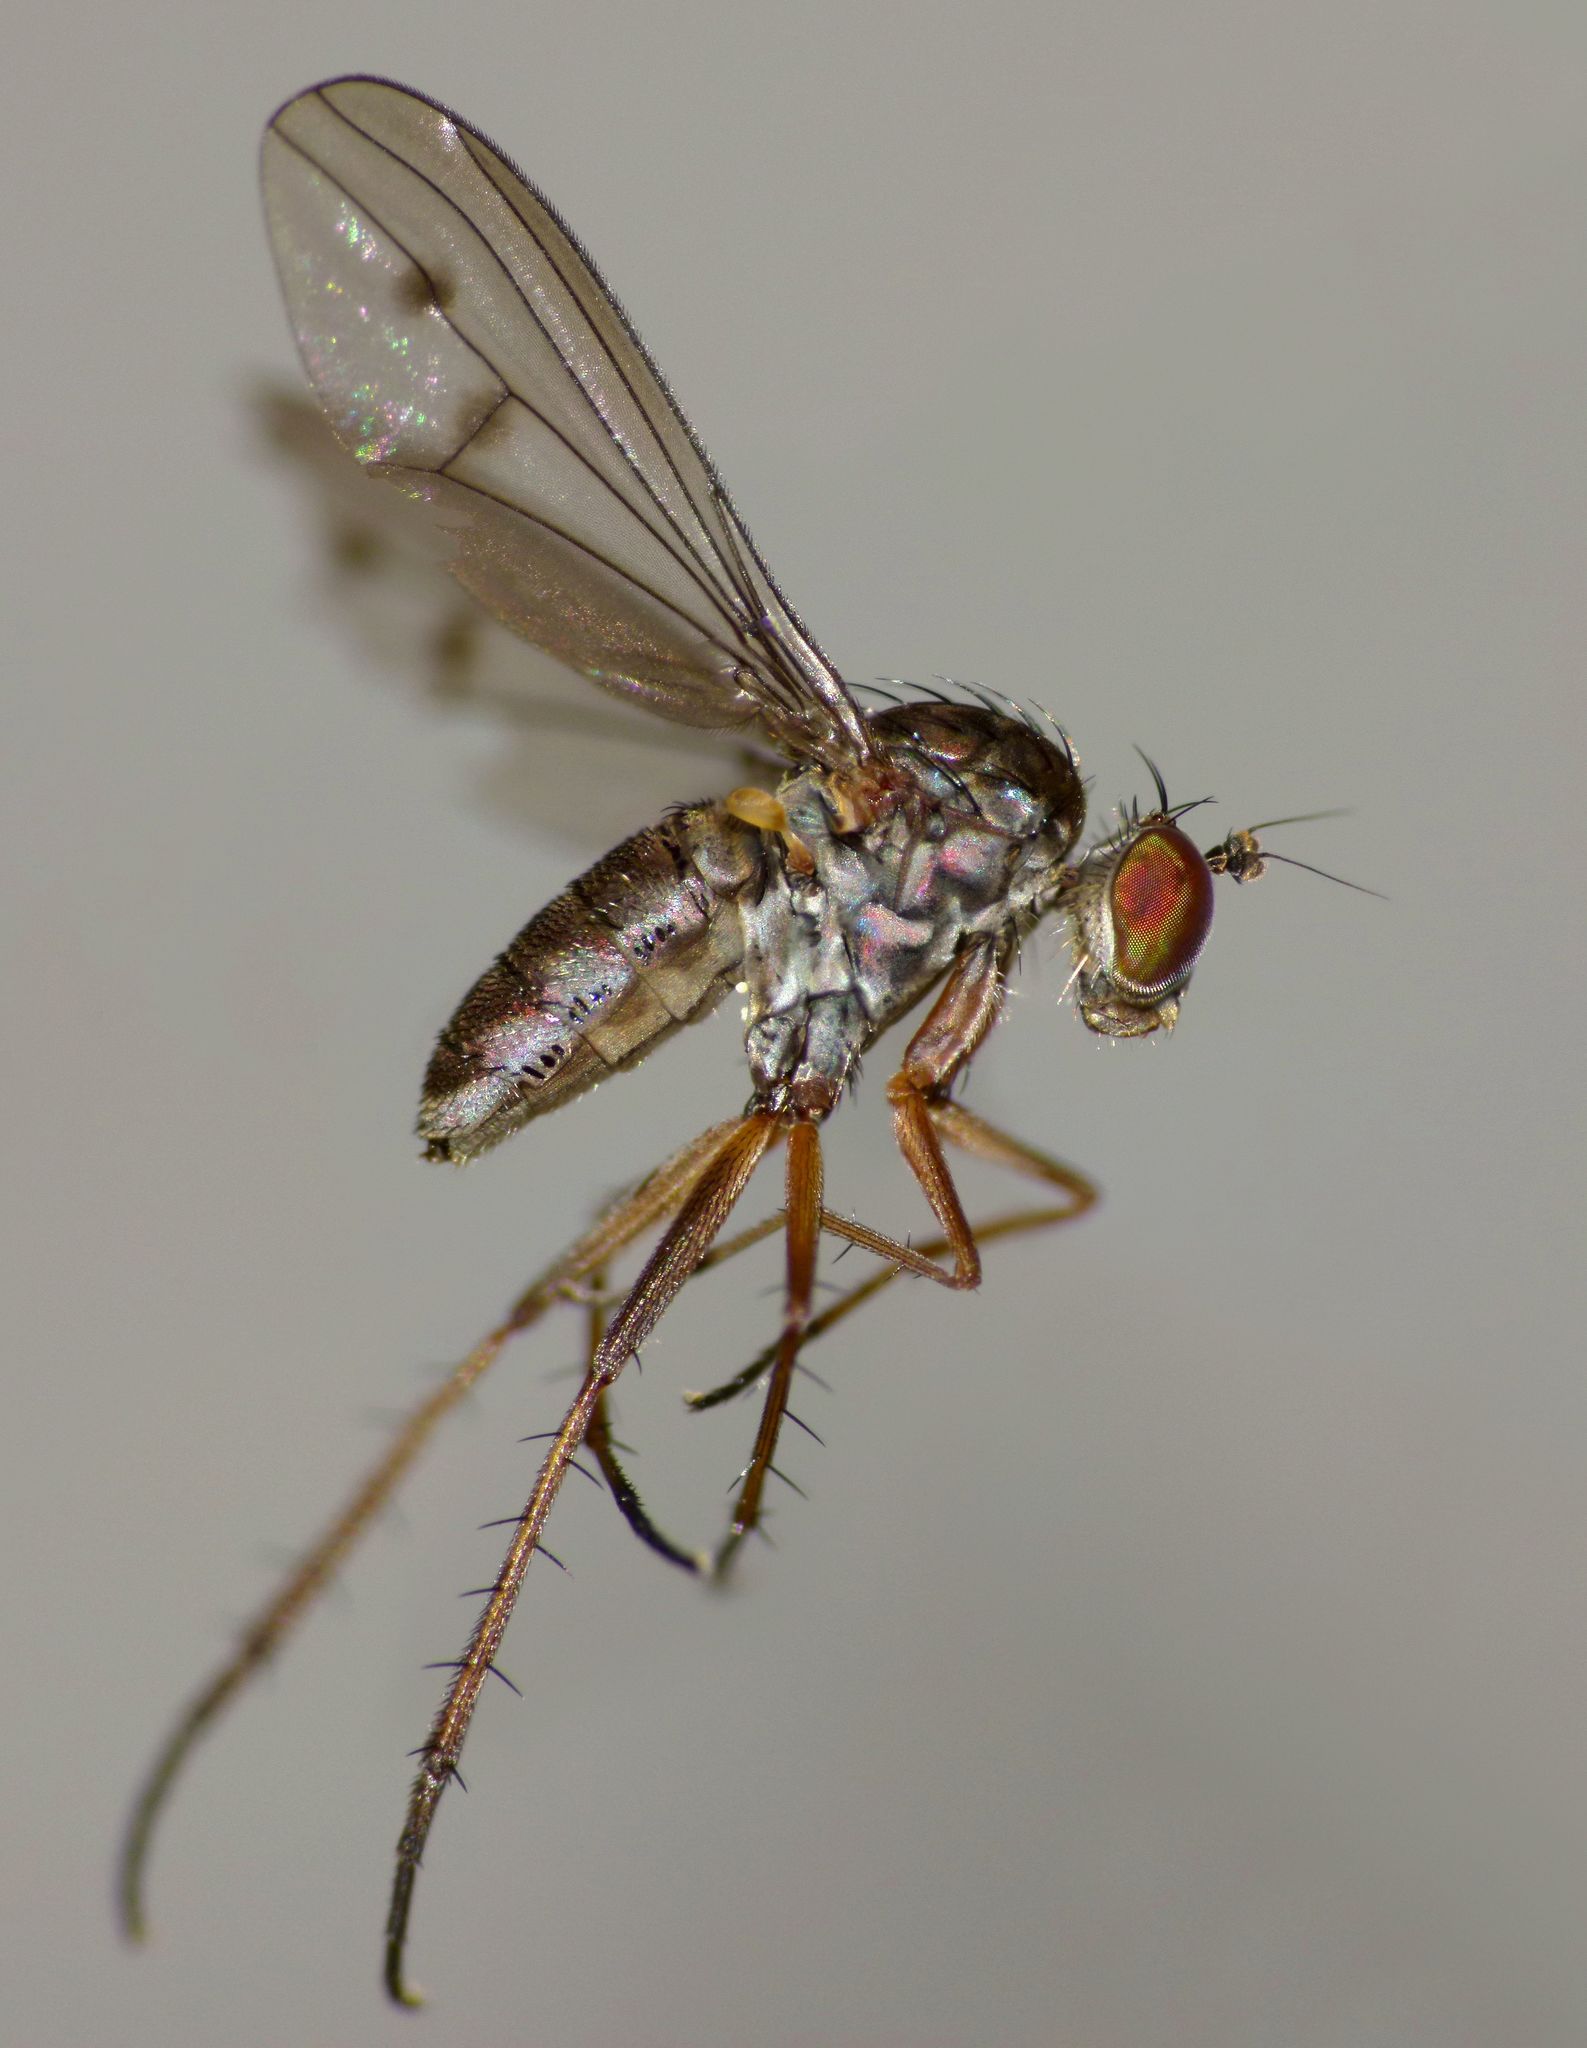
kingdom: Animalia
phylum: Arthropoda
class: Insecta
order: Diptera
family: Dolichopodidae
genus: Tetrachaetus
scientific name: Tetrachaetus bipunctatus
